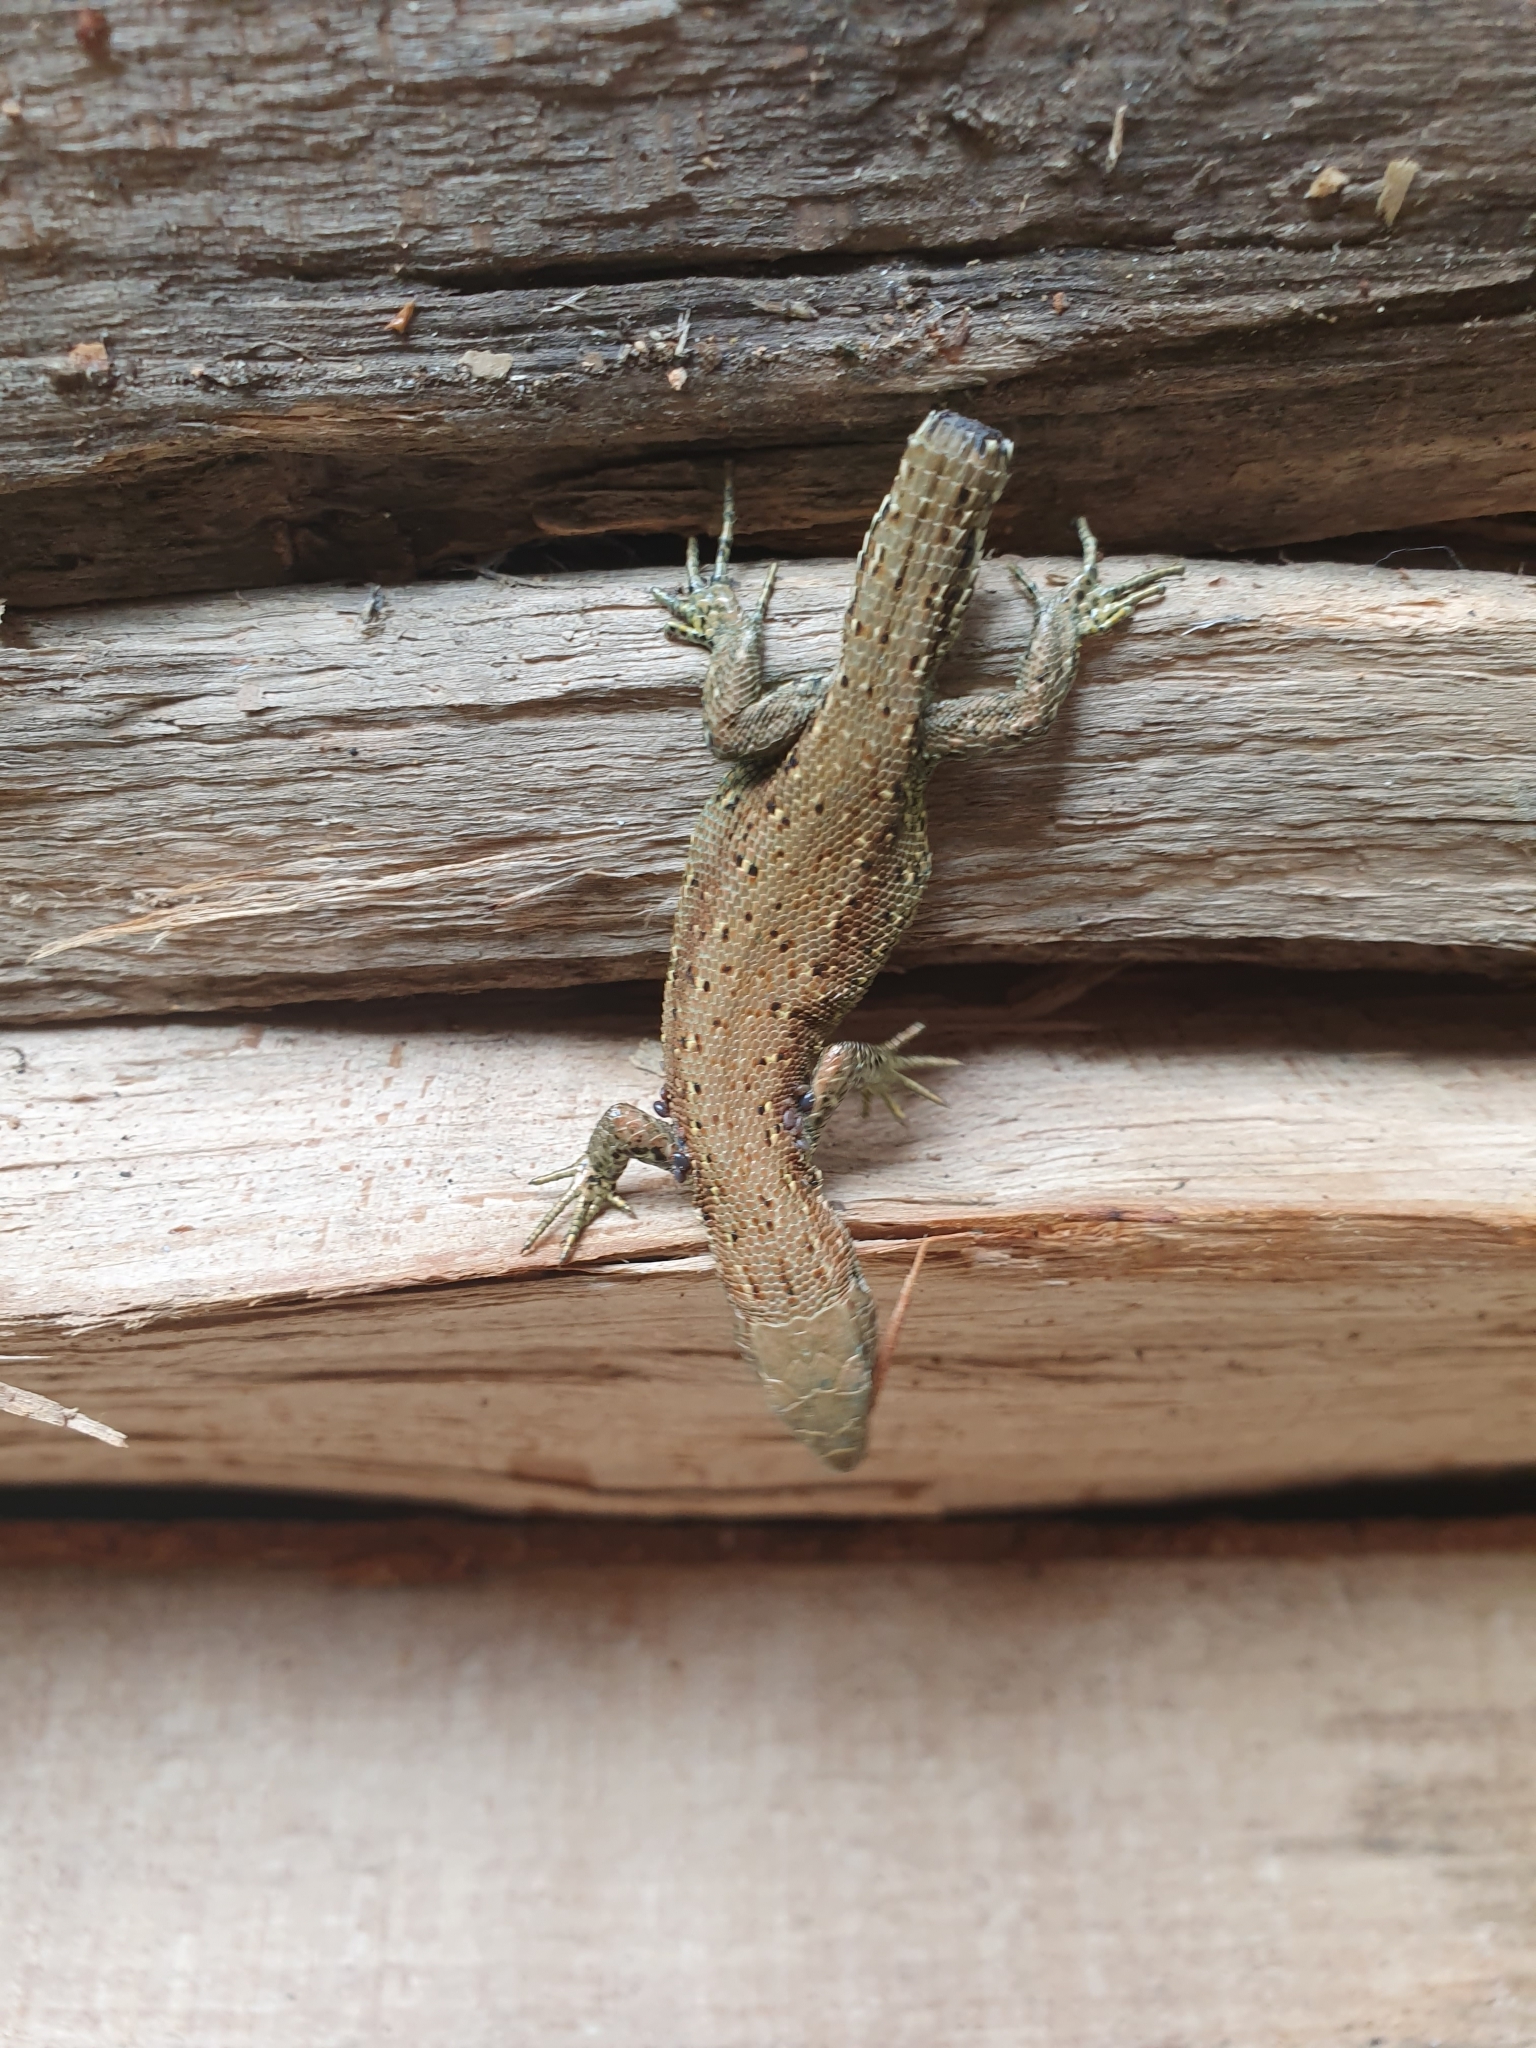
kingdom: Animalia
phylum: Chordata
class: Squamata
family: Lacertidae
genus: Zootoca
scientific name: Zootoca vivipara
